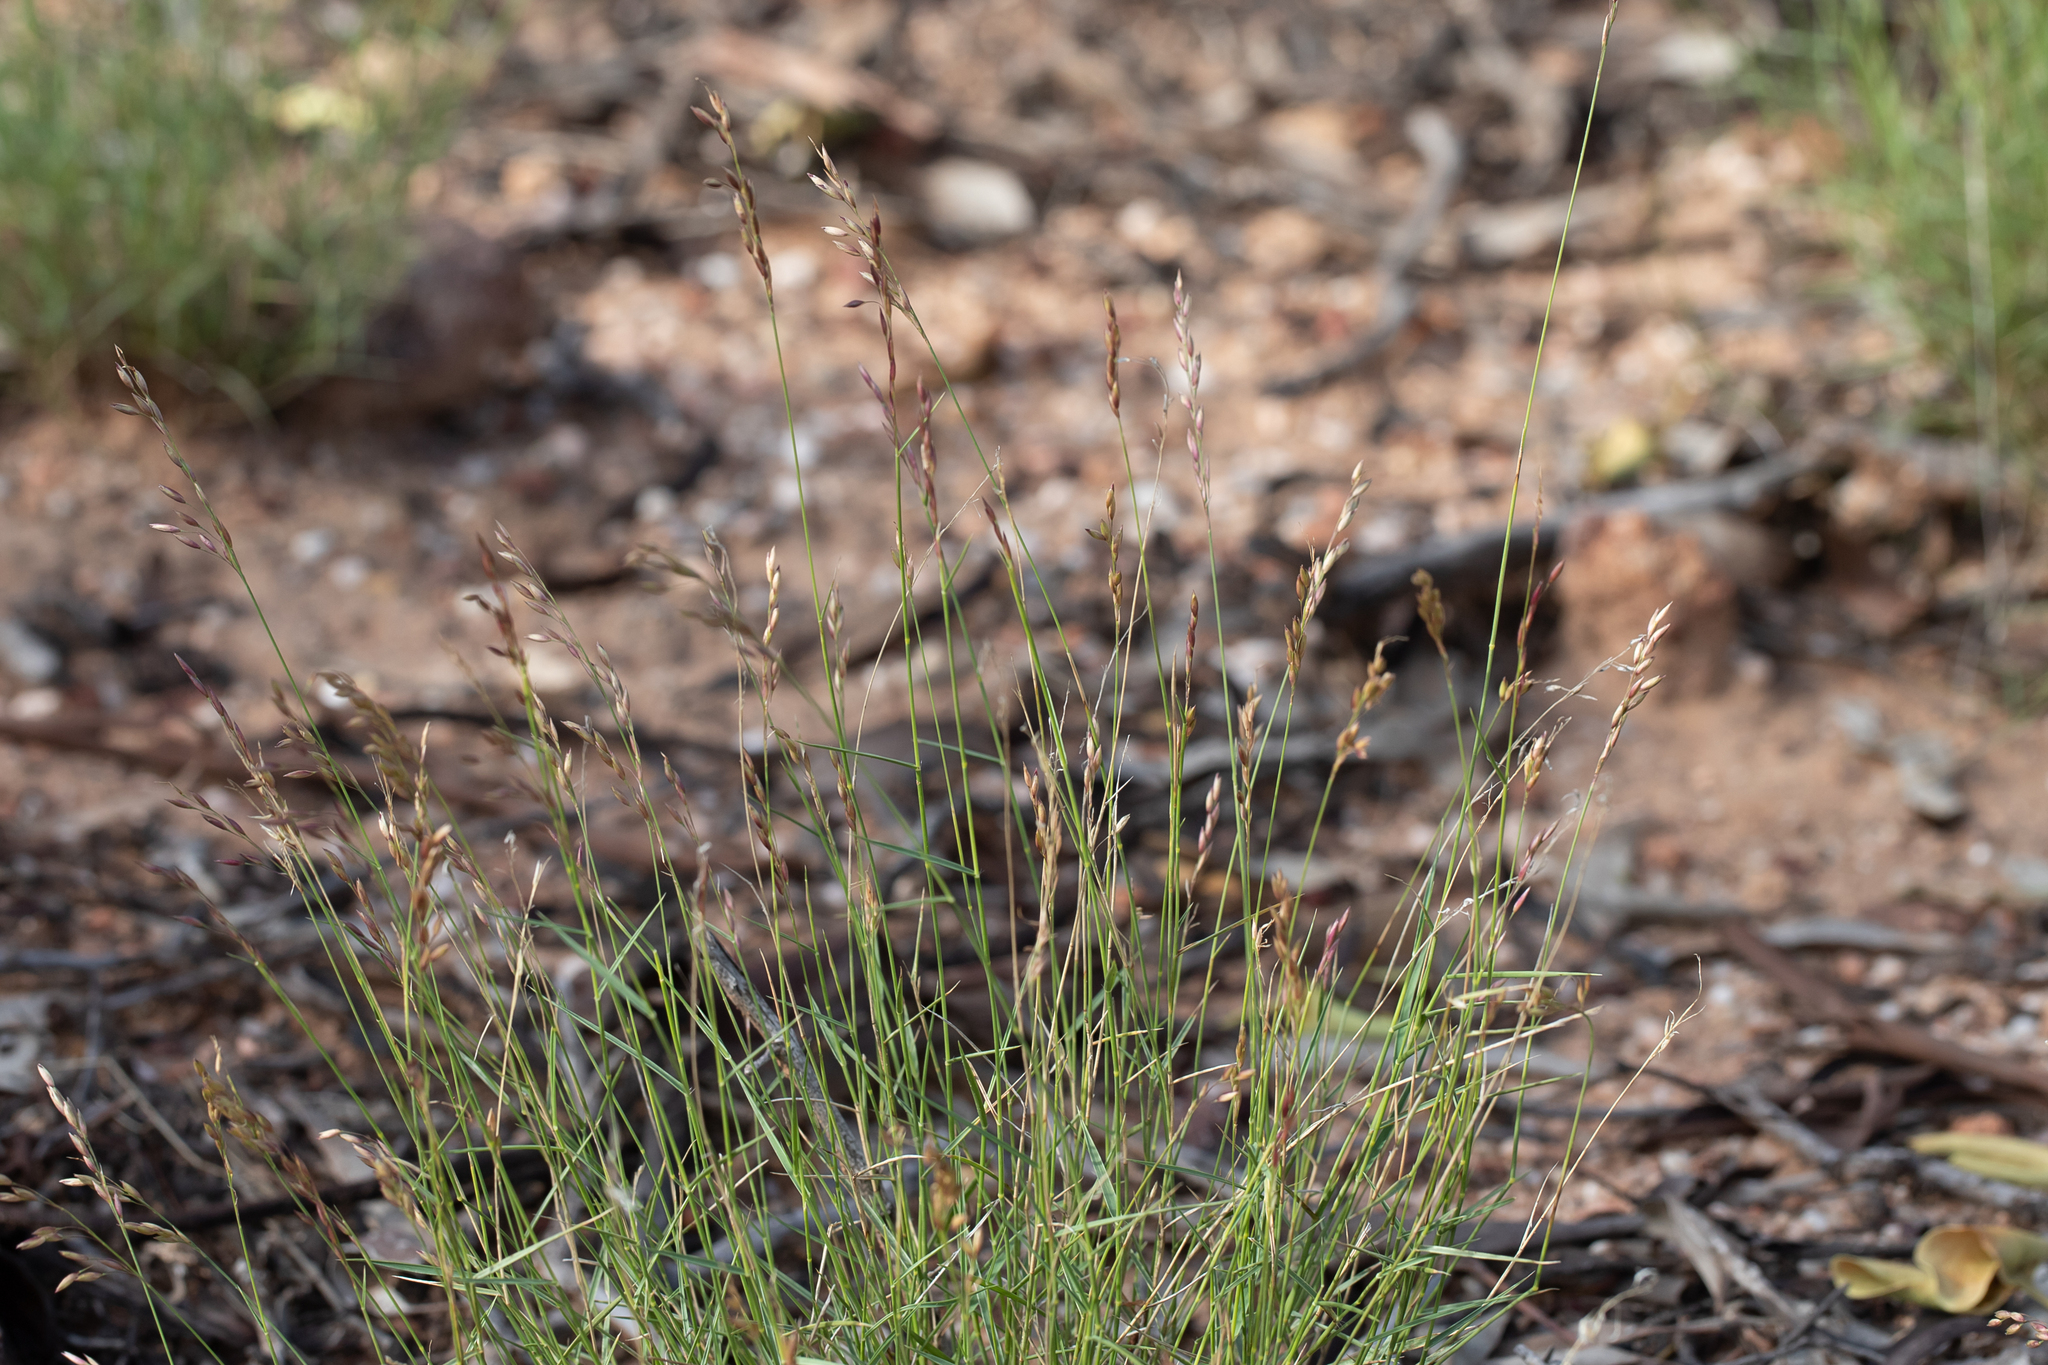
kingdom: Plantae
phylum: Tracheophyta
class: Liliopsida
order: Poales
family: Poaceae
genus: Eriachne
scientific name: Eriachne mucronata
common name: Mountain wanderrie grass
